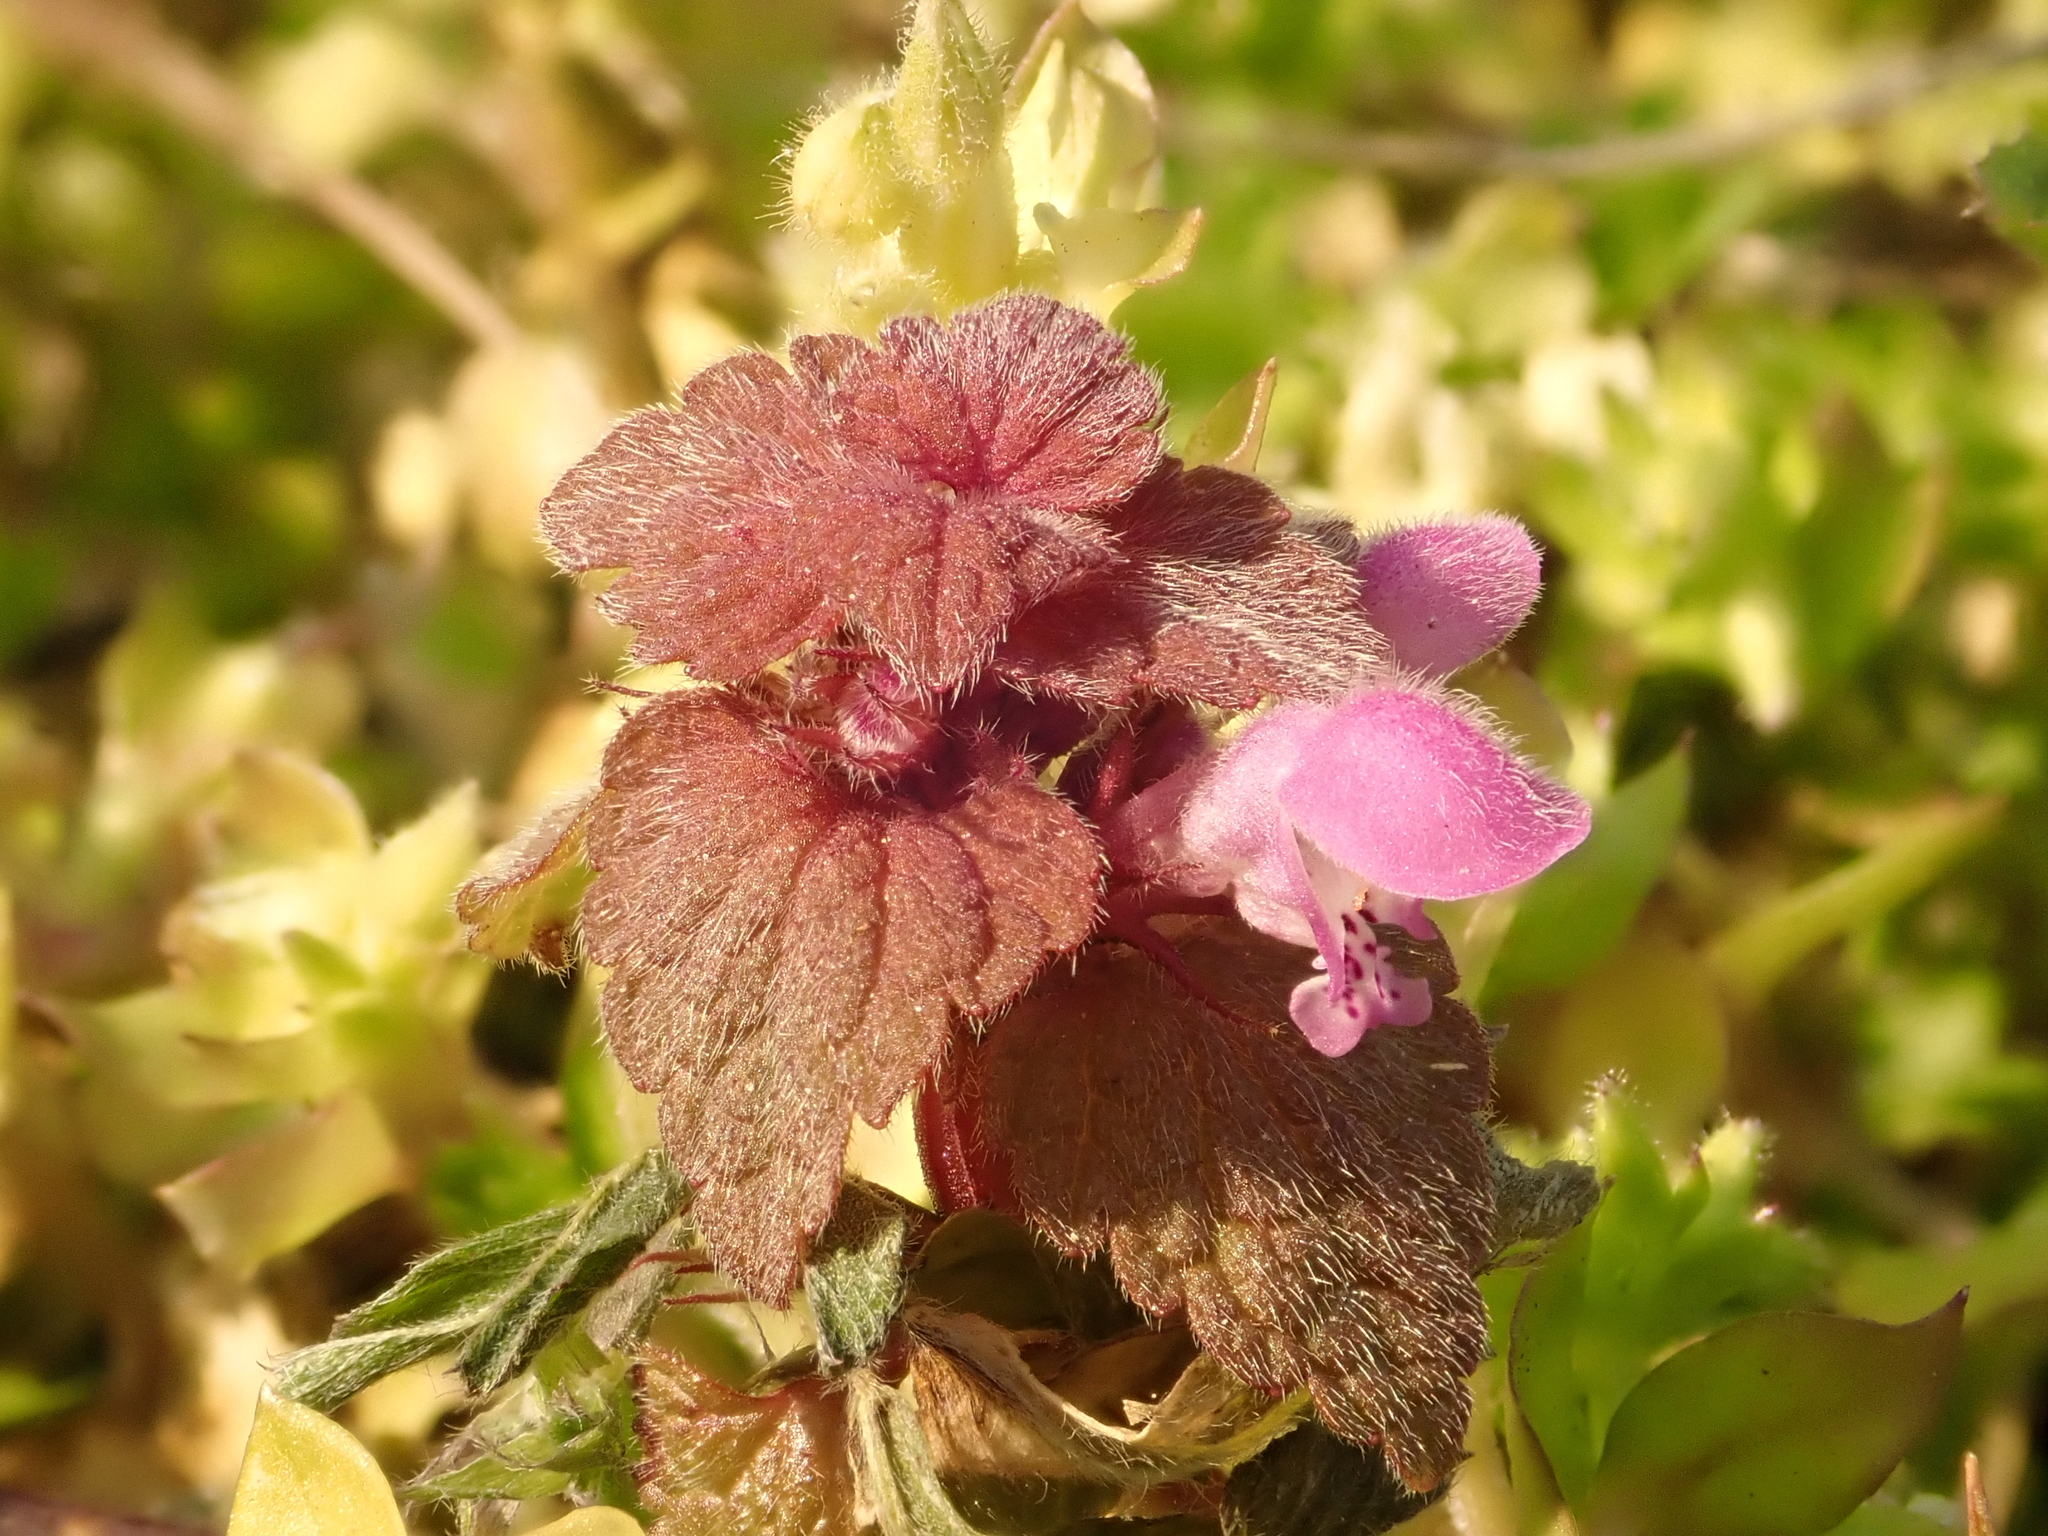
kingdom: Plantae
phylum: Tracheophyta
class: Magnoliopsida
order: Lamiales
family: Lamiaceae
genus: Lamium
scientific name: Lamium purpureum
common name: Red dead-nettle
